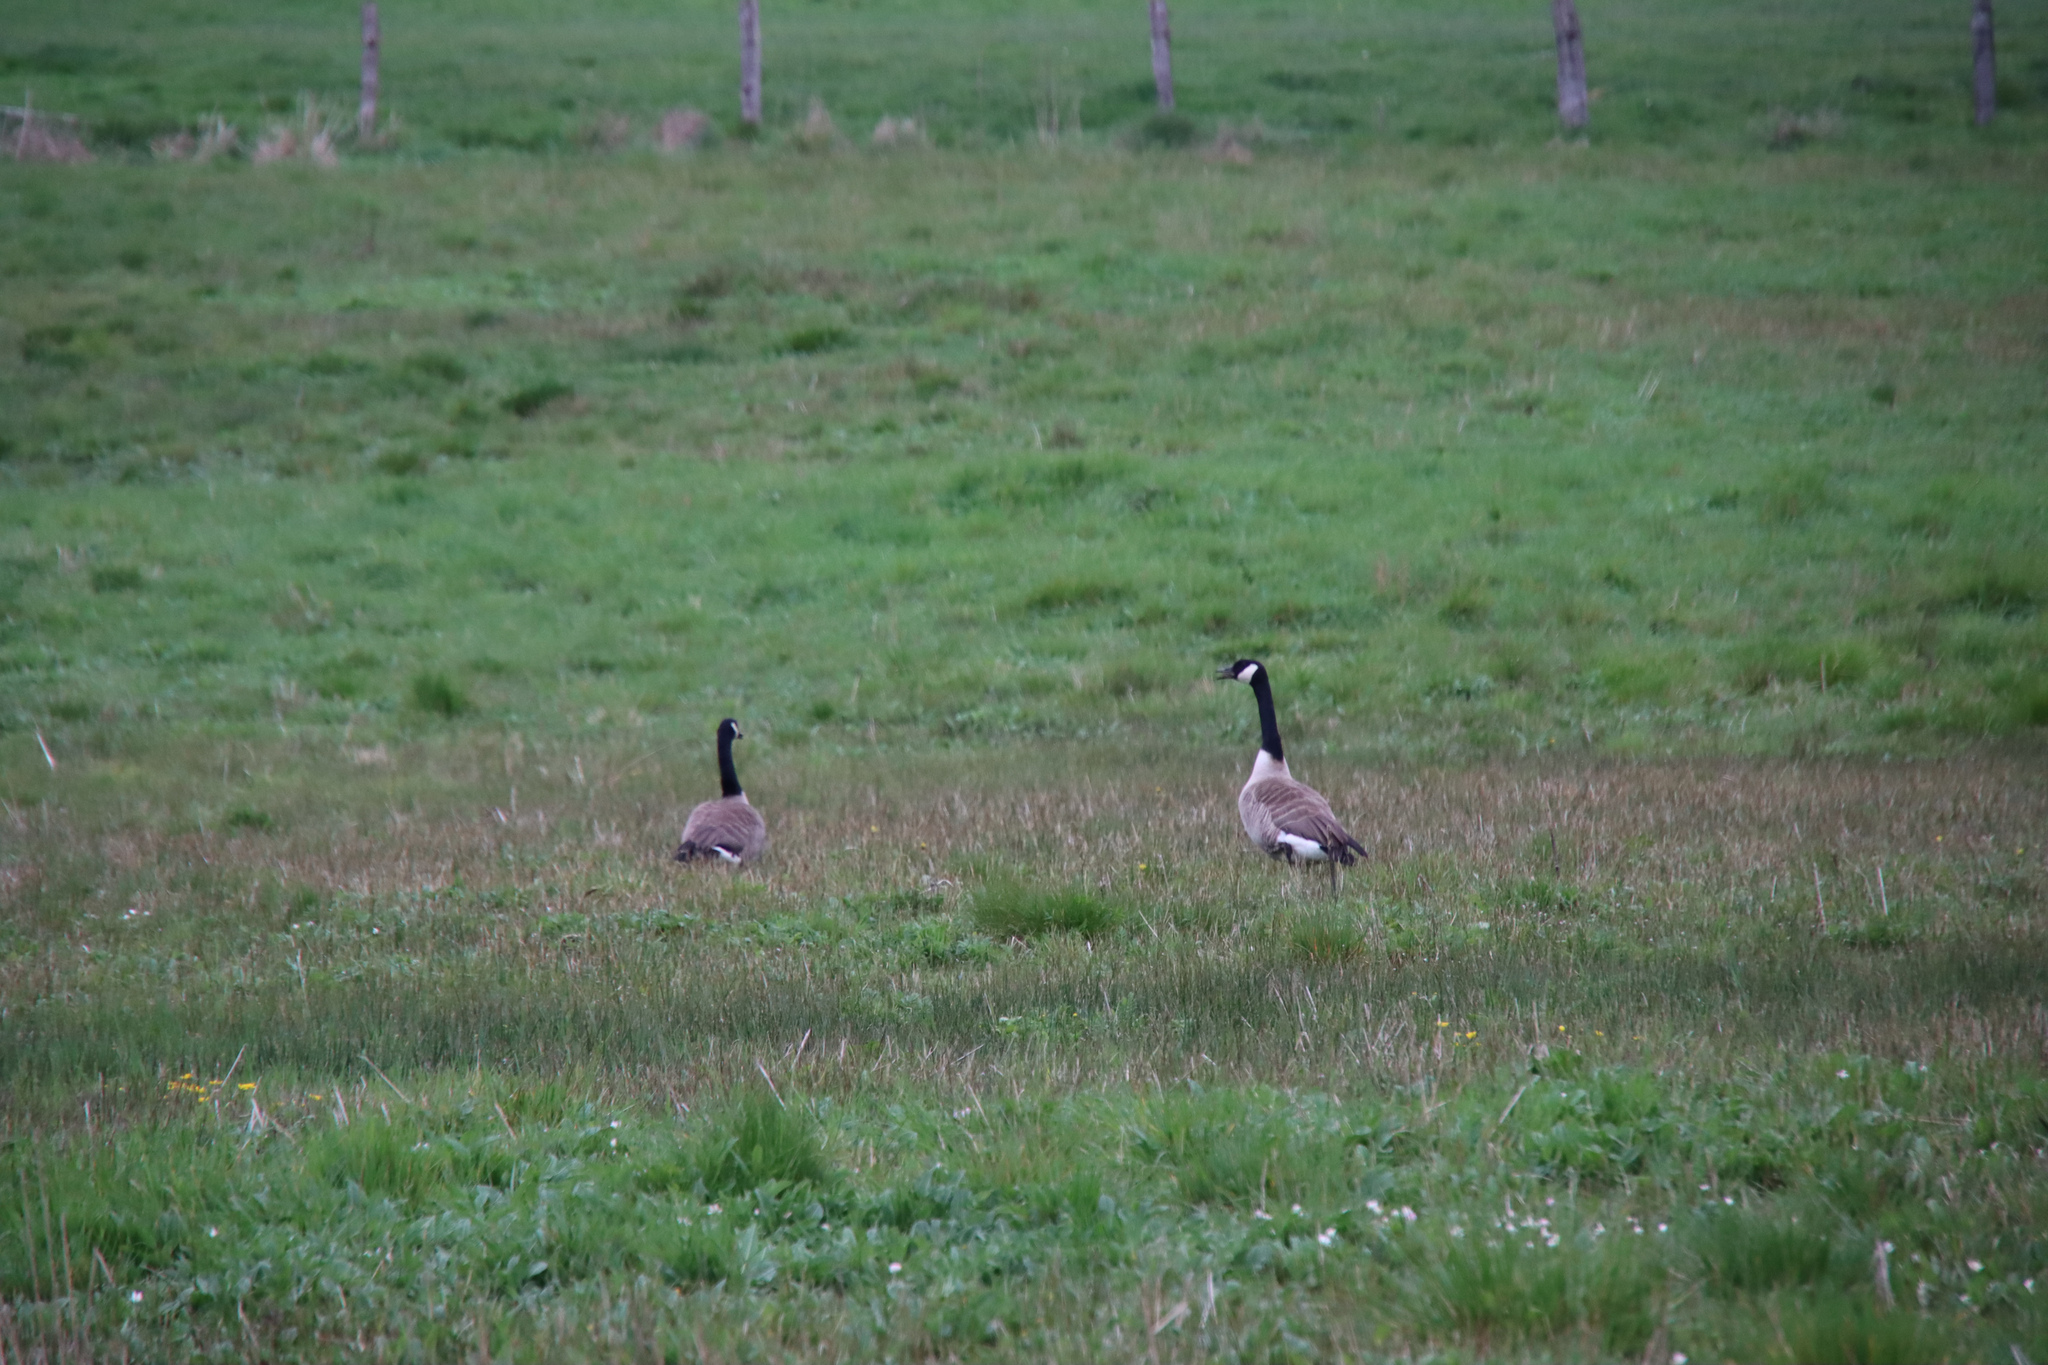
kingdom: Animalia
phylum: Chordata
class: Aves
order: Anseriformes
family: Anatidae
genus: Branta
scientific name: Branta canadensis
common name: Canada goose
